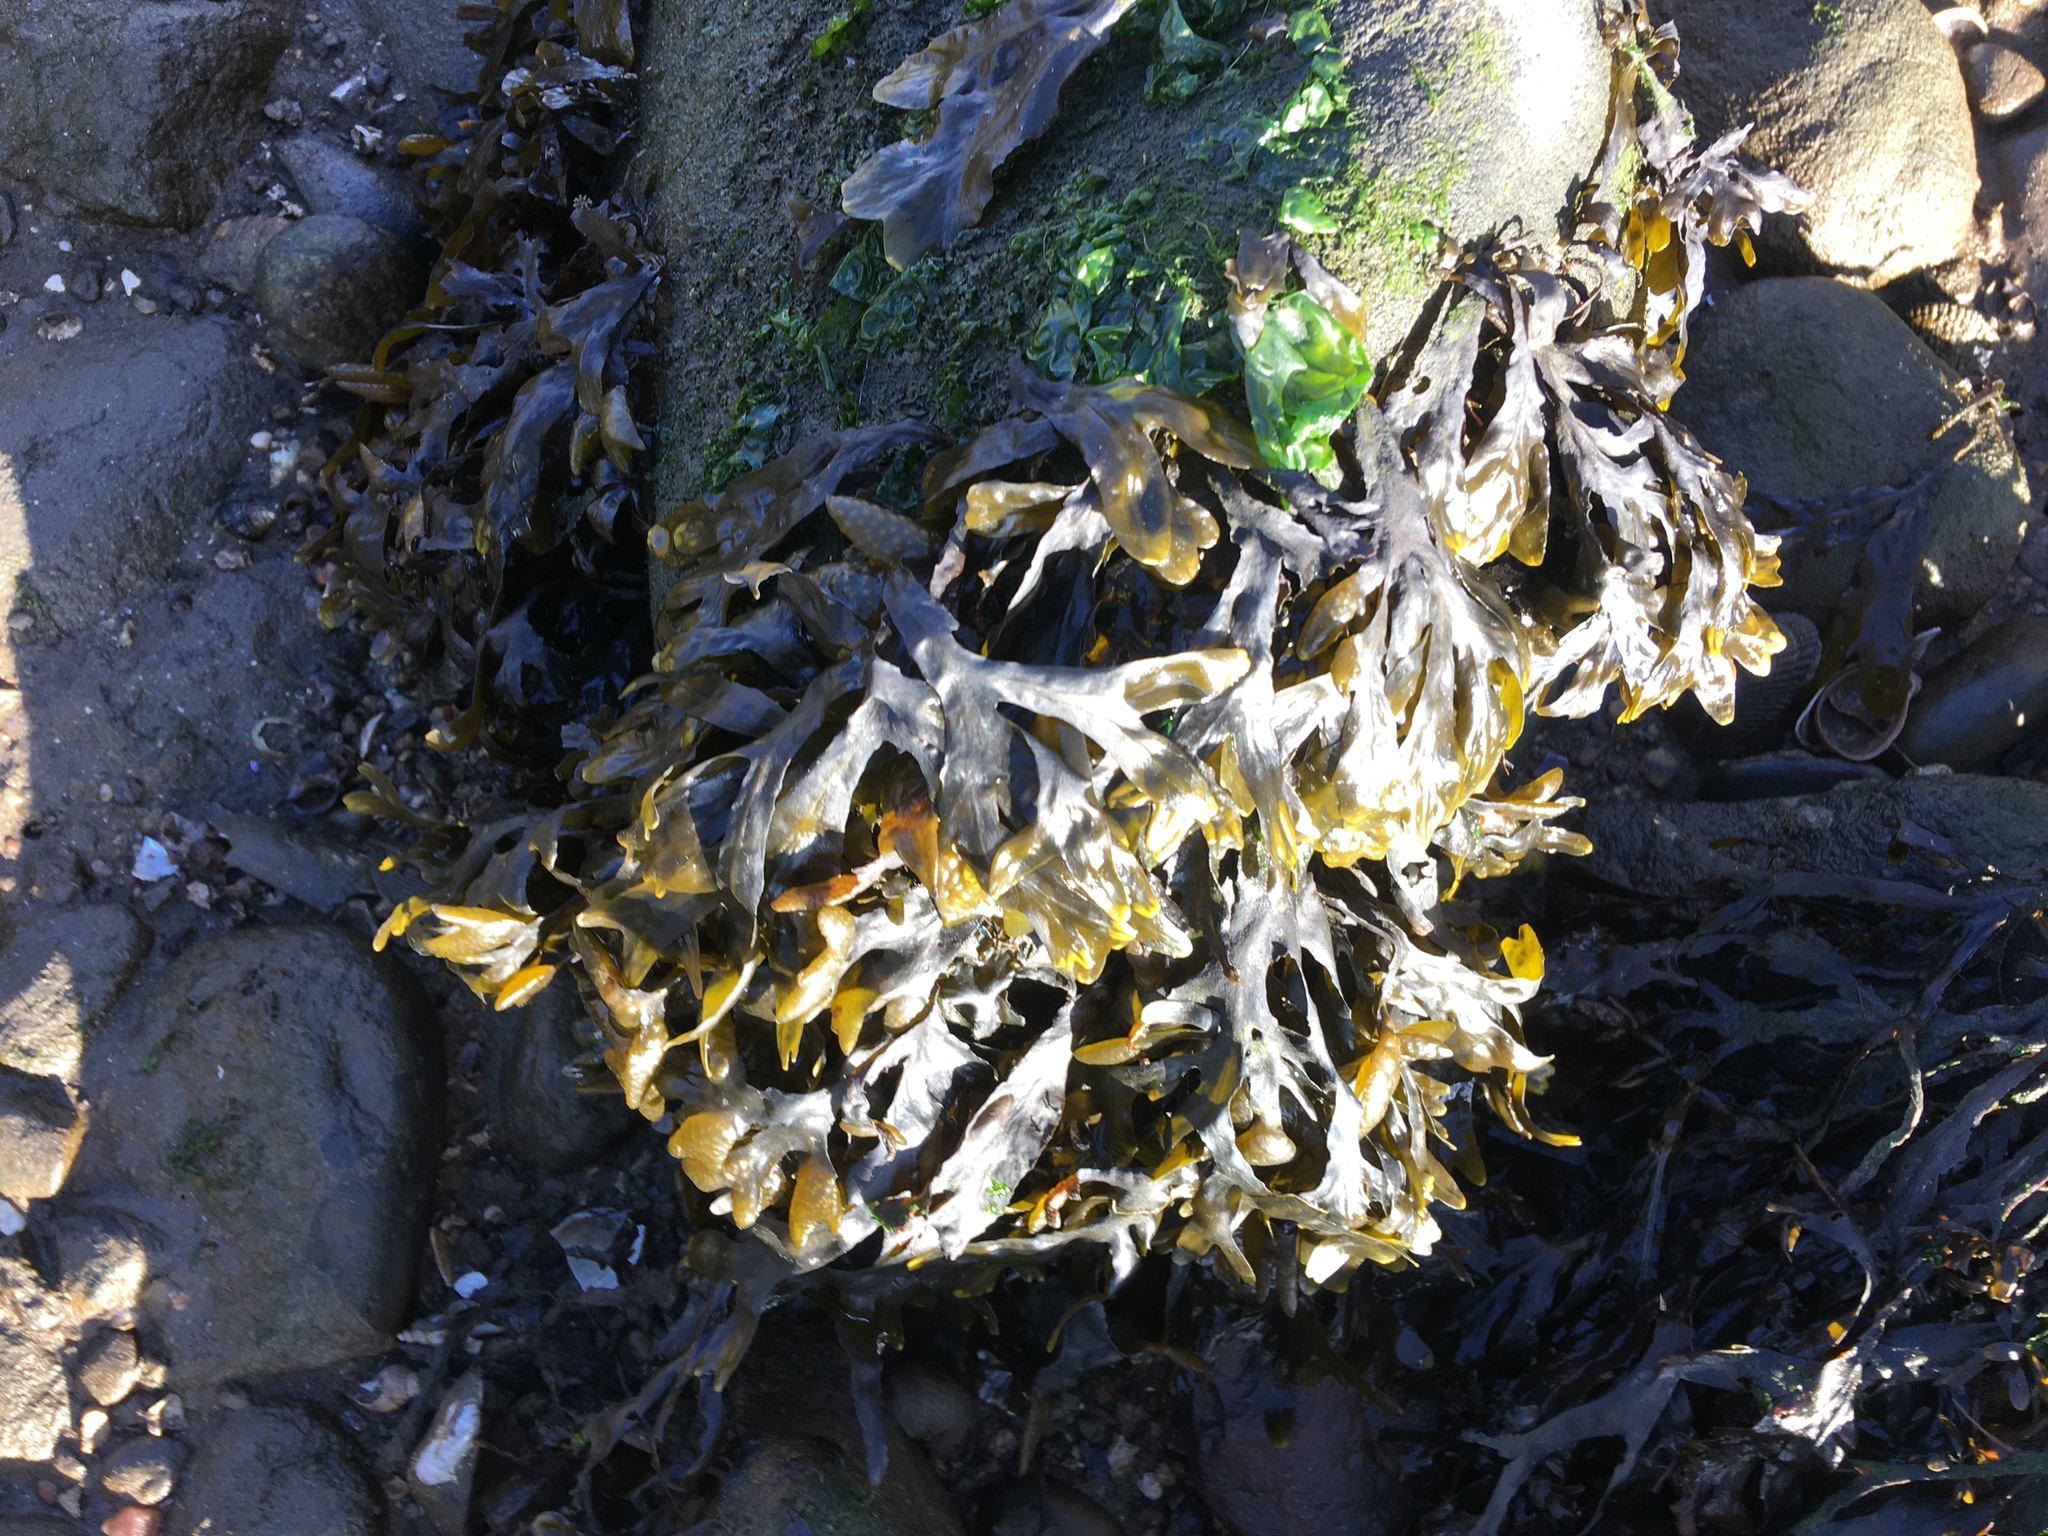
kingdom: Chromista
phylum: Ochrophyta
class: Phaeophyceae
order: Fucales
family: Fucaceae
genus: Fucus
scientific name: Fucus vesiculosus
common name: Bladder wrack
